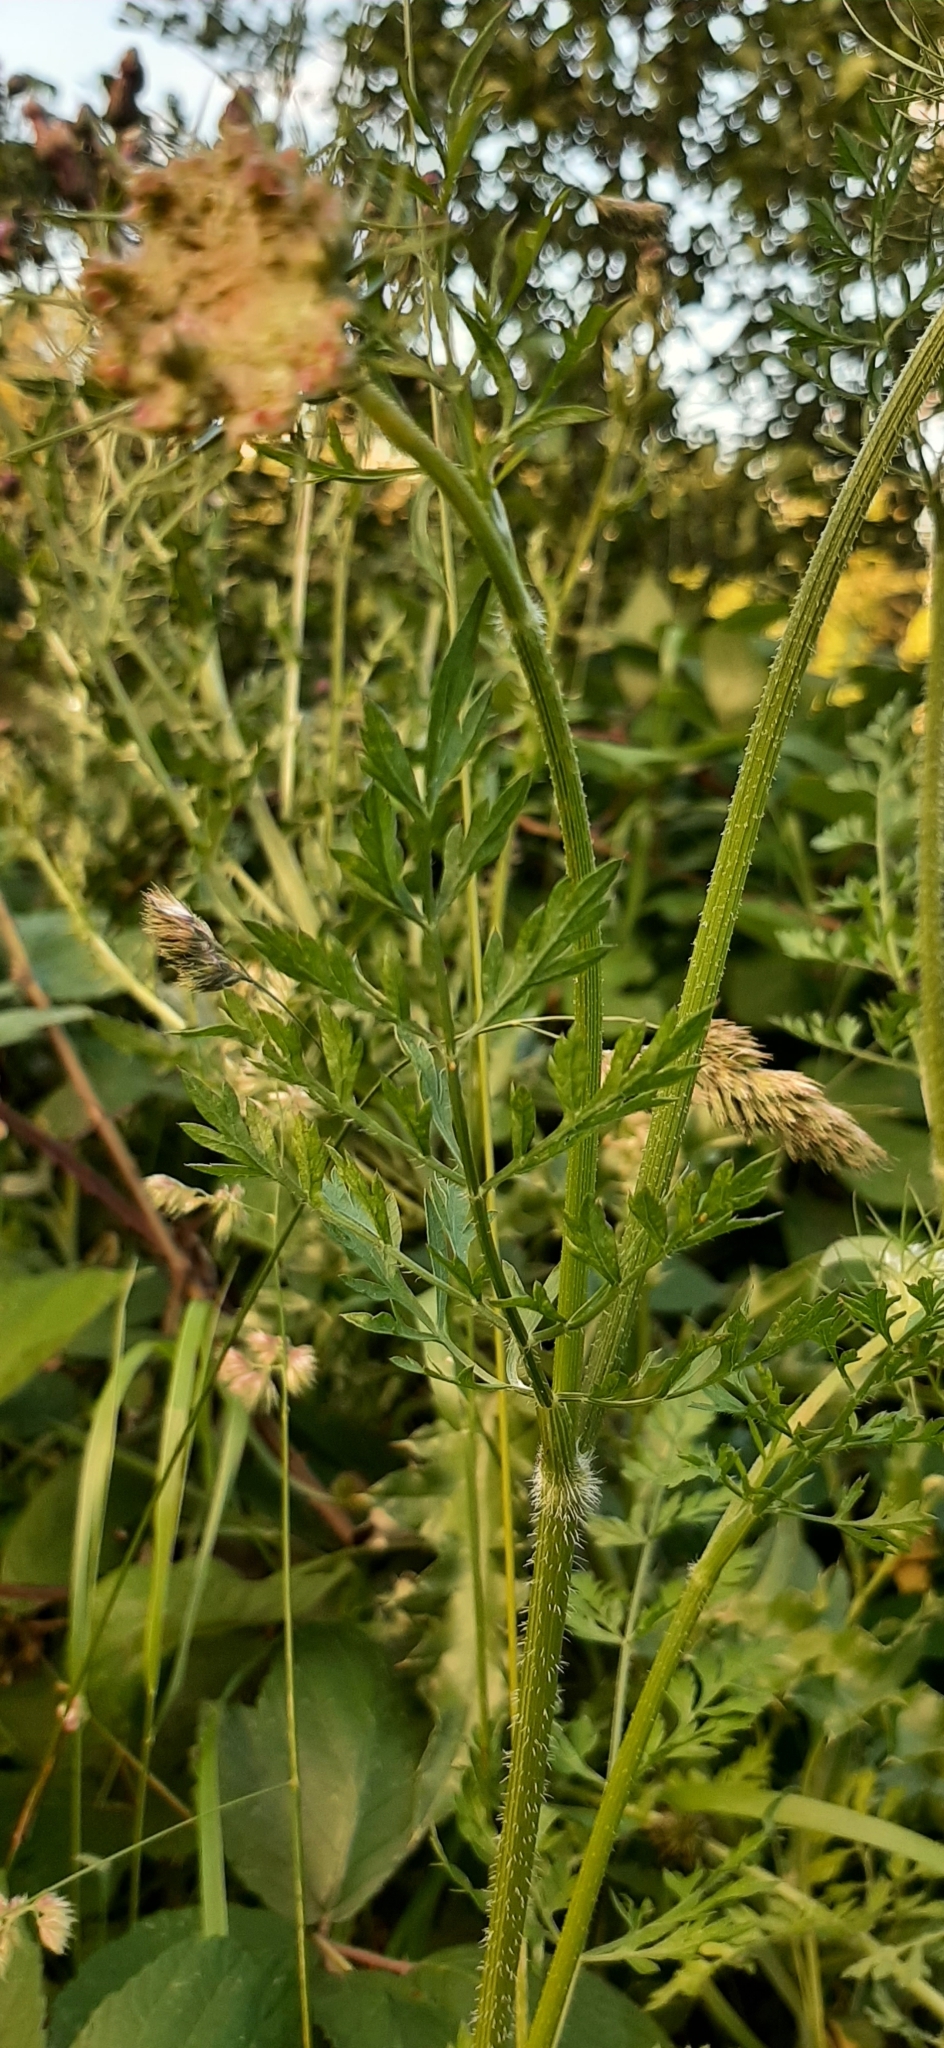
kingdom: Plantae
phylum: Tracheophyta
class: Magnoliopsida
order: Apiales
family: Apiaceae
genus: Daucus
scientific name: Daucus carota
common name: Wild carrot
